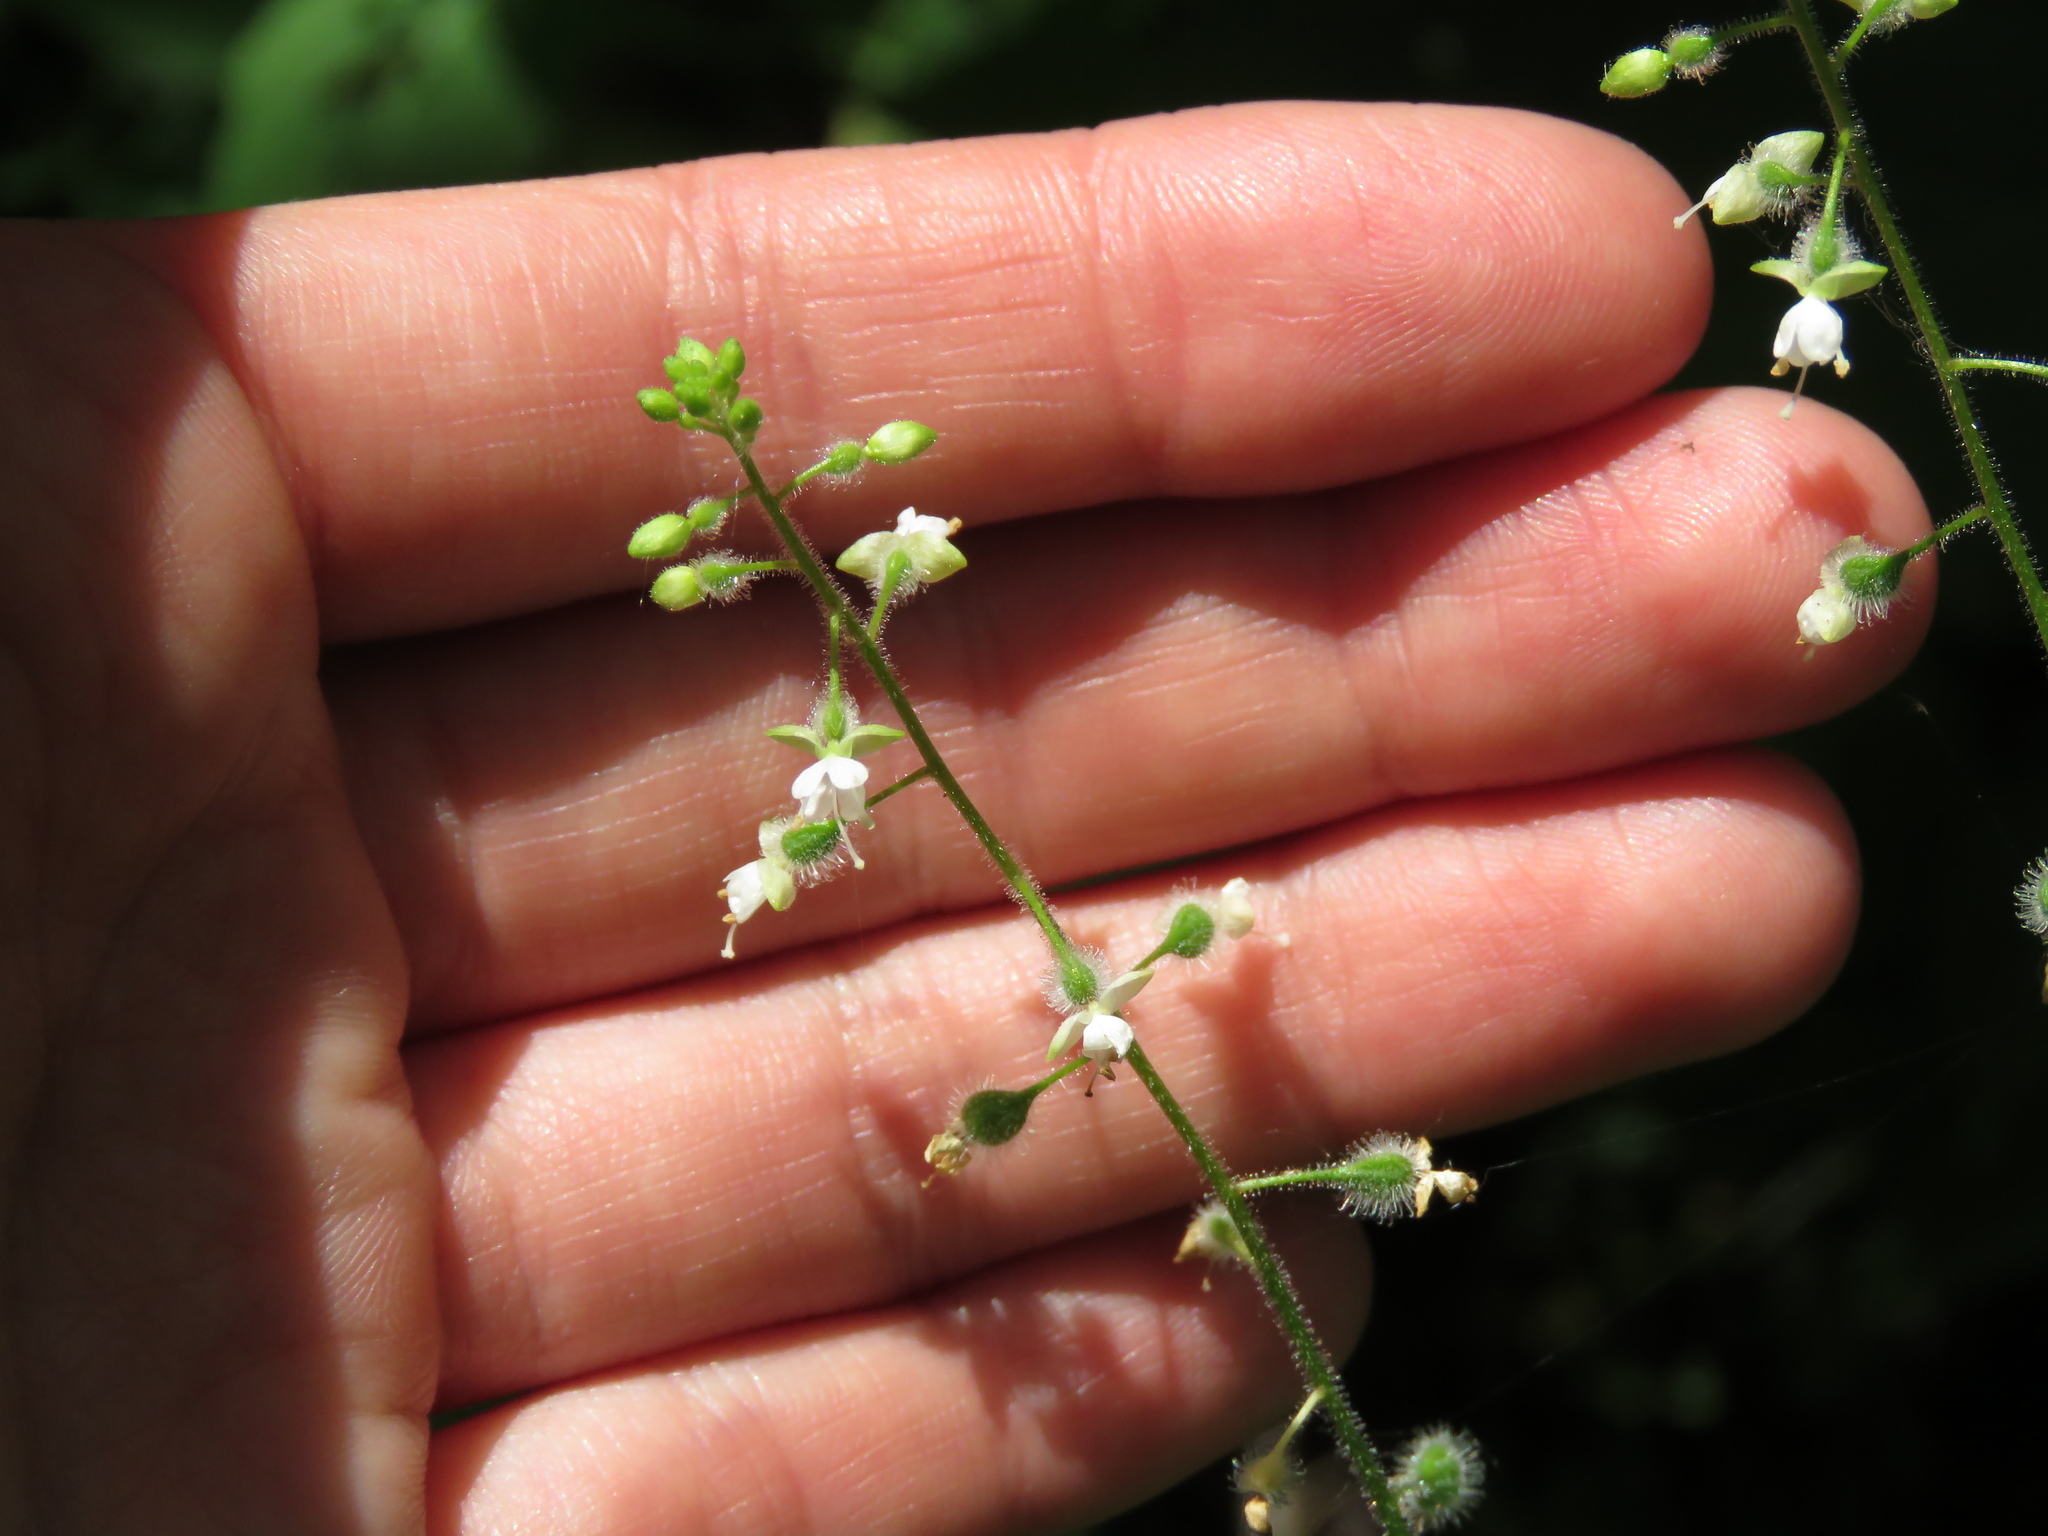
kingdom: Plantae
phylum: Tracheophyta
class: Magnoliopsida
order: Myrtales
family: Onagraceae
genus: Circaea
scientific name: Circaea canadensis
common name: Broad-leaved enchanter's nightshade
